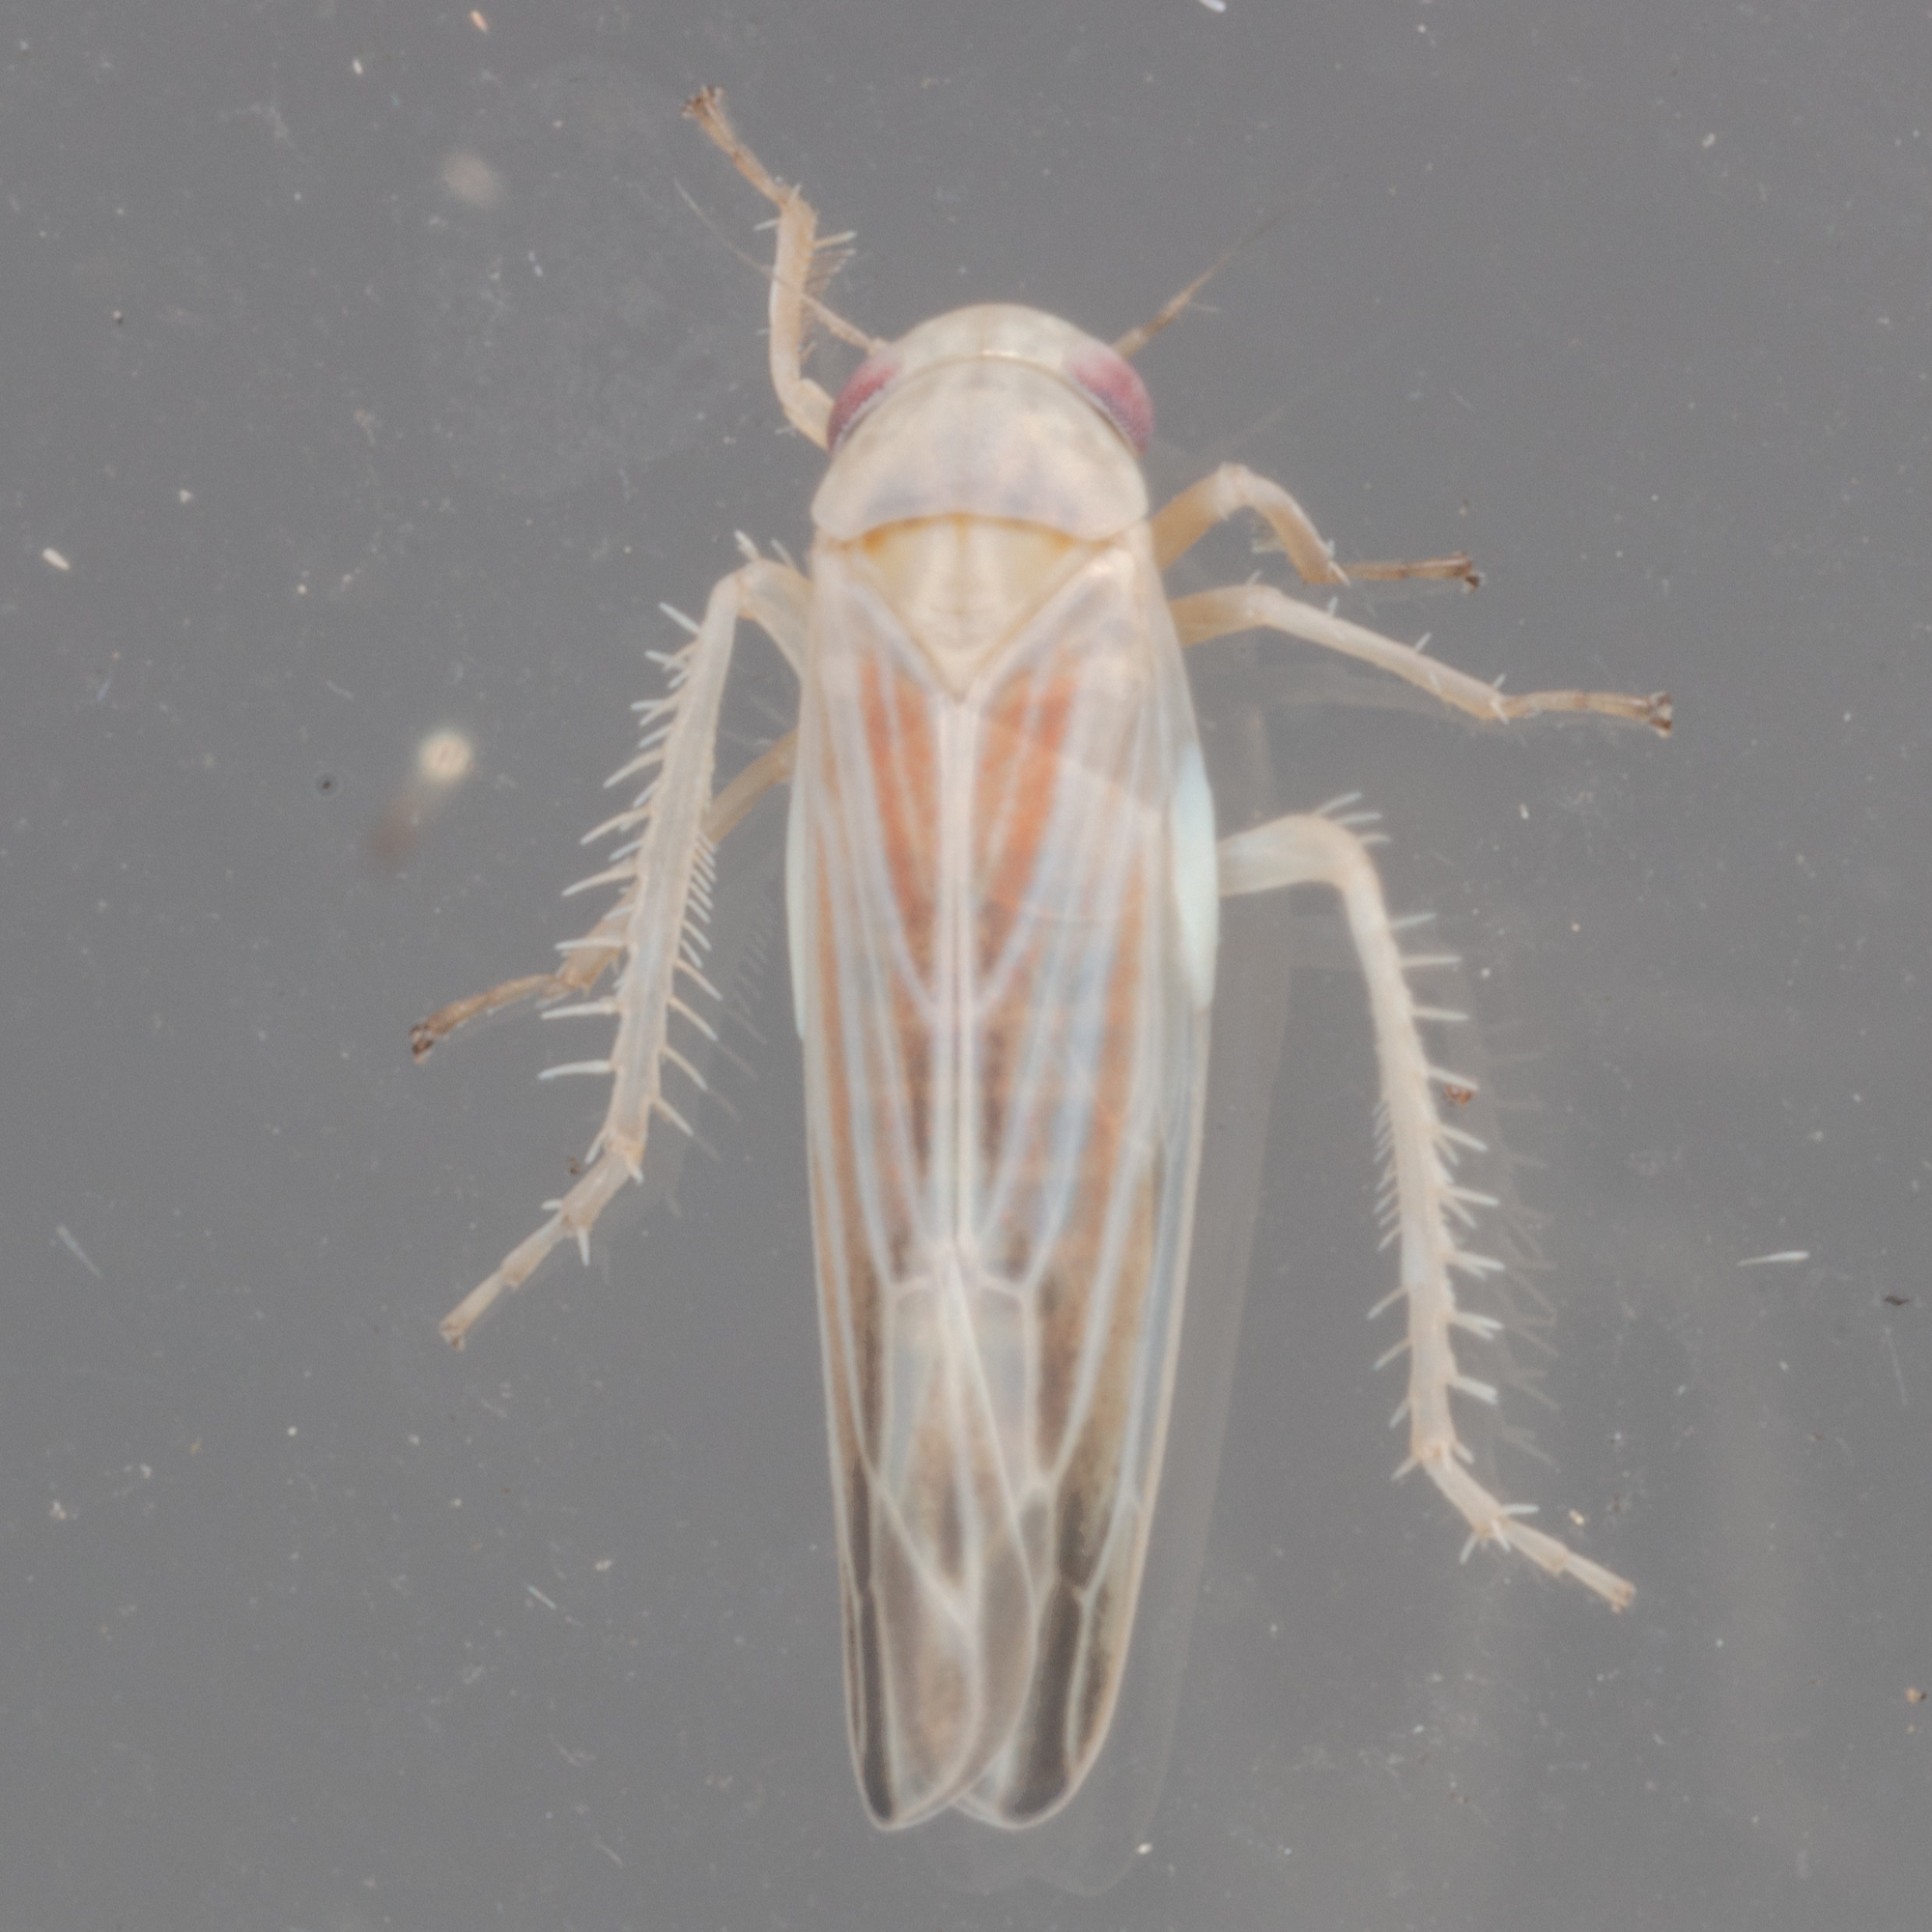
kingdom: Animalia
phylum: Arthropoda
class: Insecta
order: Hemiptera
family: Cicadellidae
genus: Balclutha
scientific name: Balclutha rubrostriata
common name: Red-streaked leafhopper
